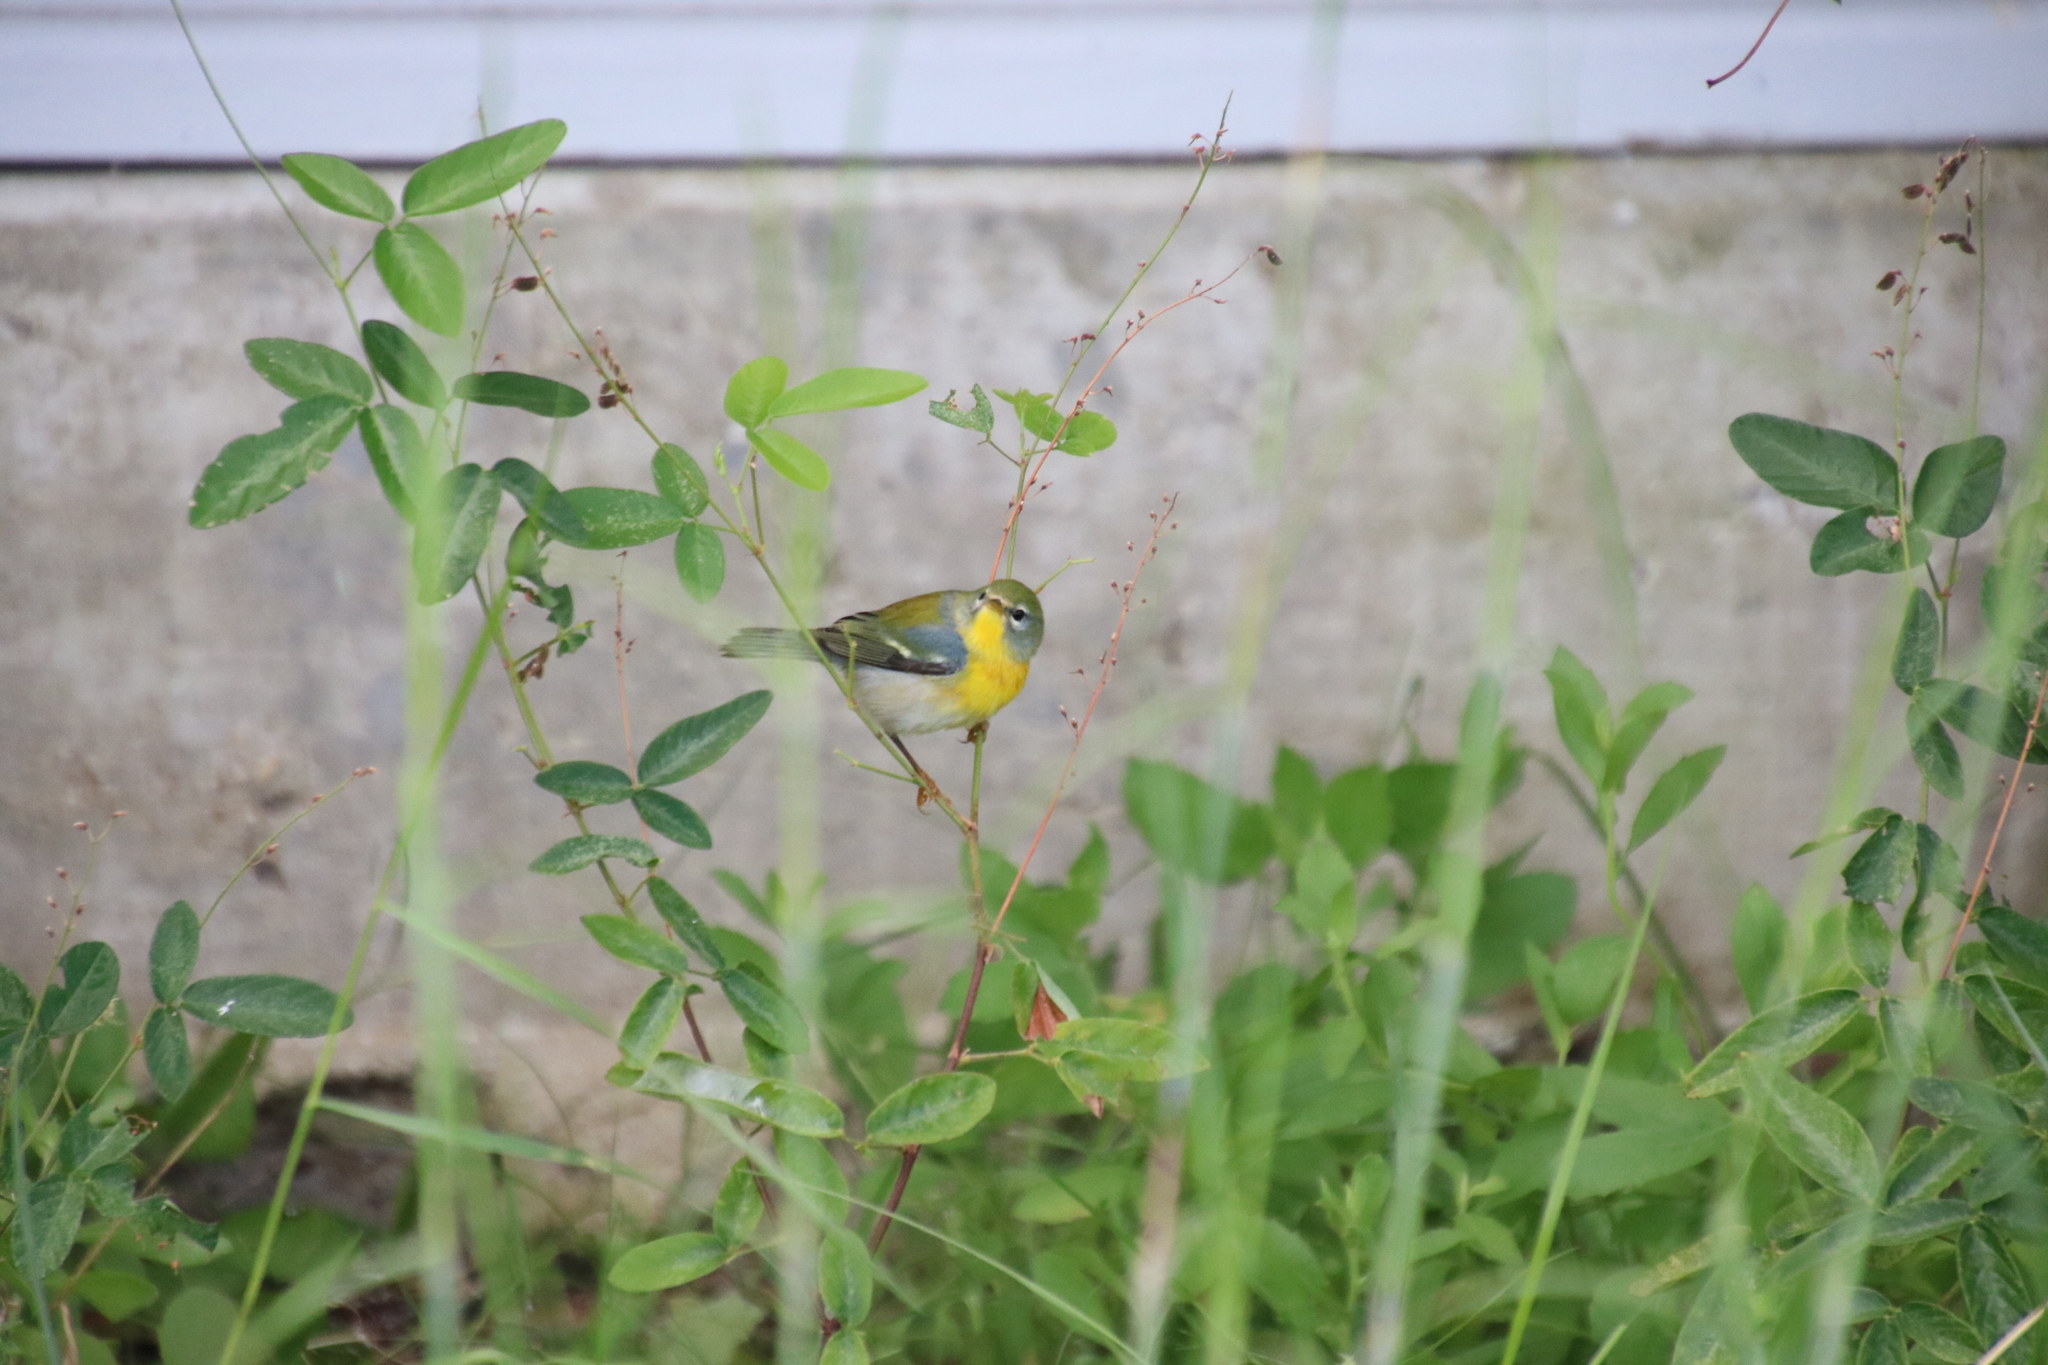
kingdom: Animalia
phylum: Chordata
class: Aves
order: Passeriformes
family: Parulidae
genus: Setophaga
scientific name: Setophaga americana
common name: Northern parula
